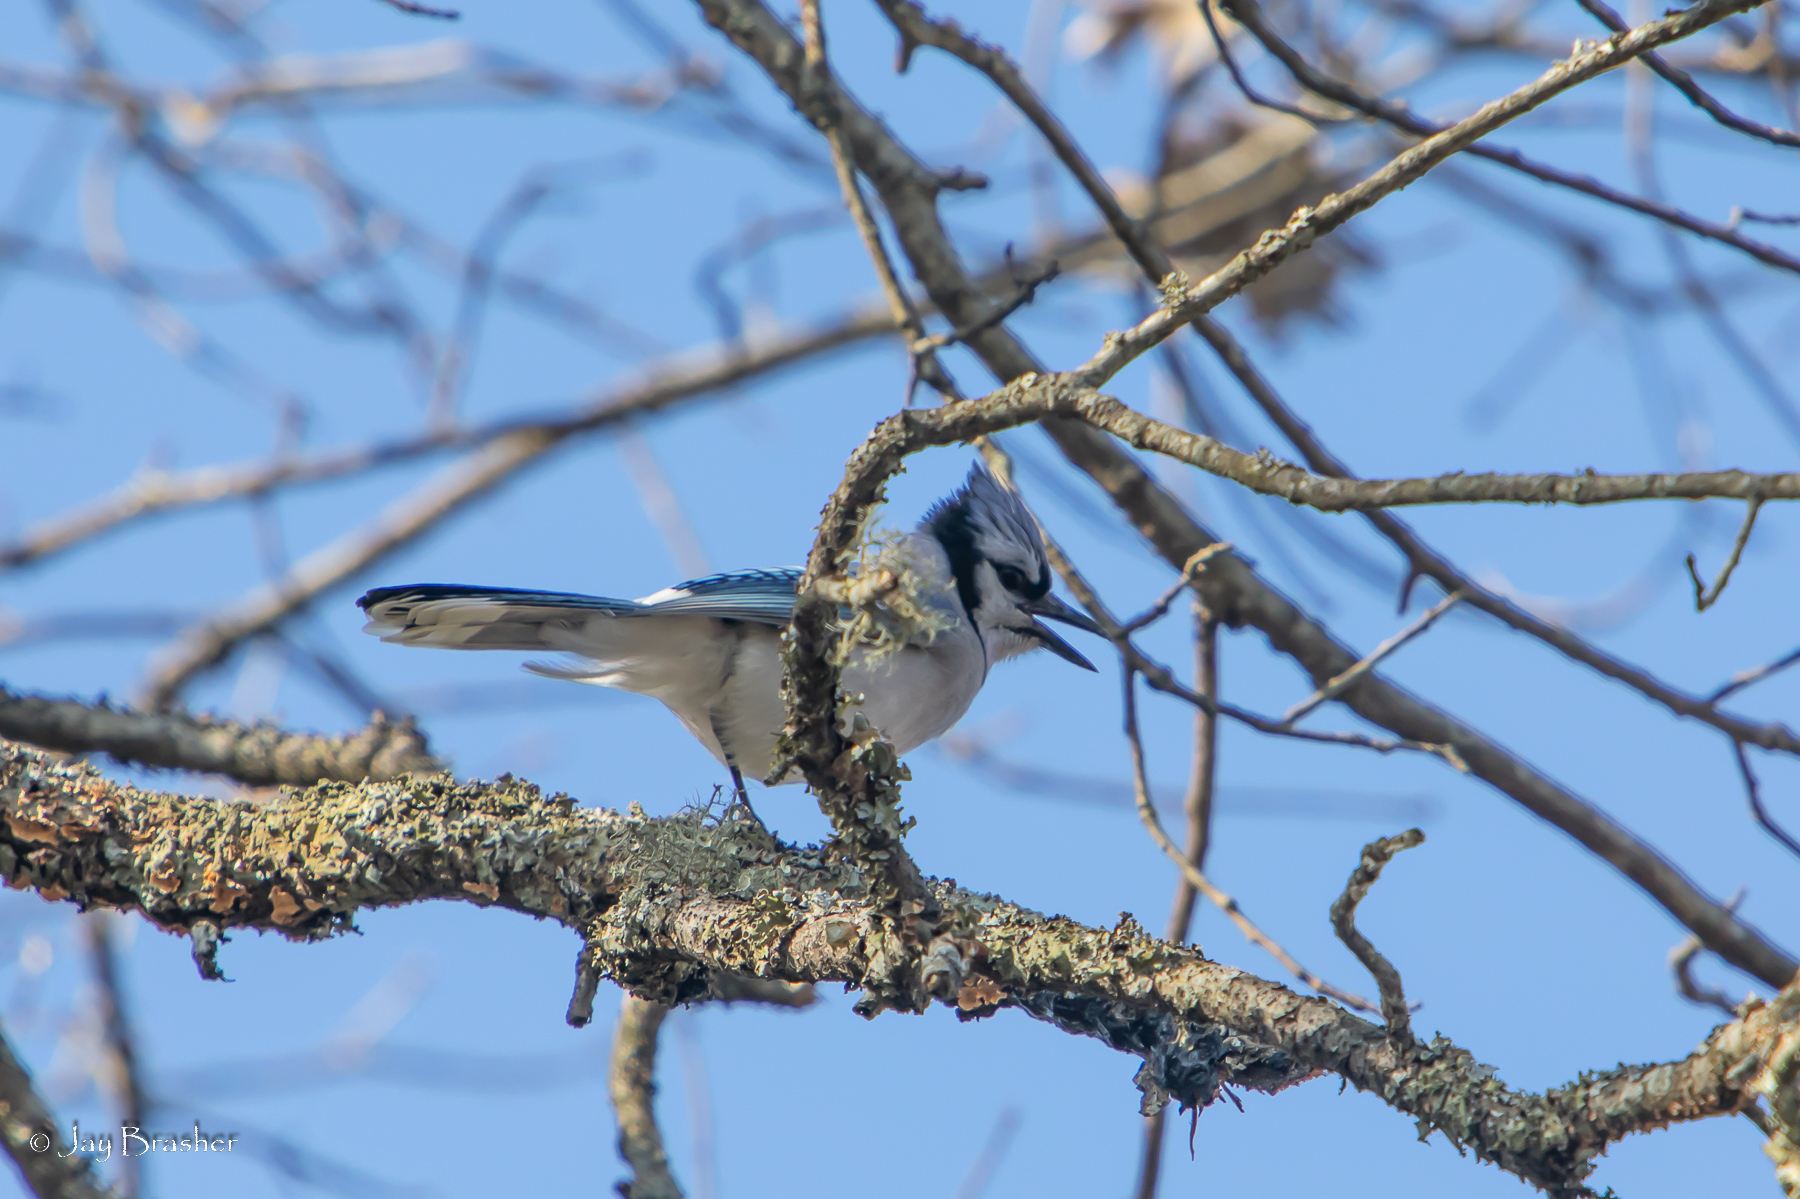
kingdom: Animalia
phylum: Chordata
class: Aves
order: Passeriformes
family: Corvidae
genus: Cyanocitta
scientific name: Cyanocitta cristata
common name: Blue jay
